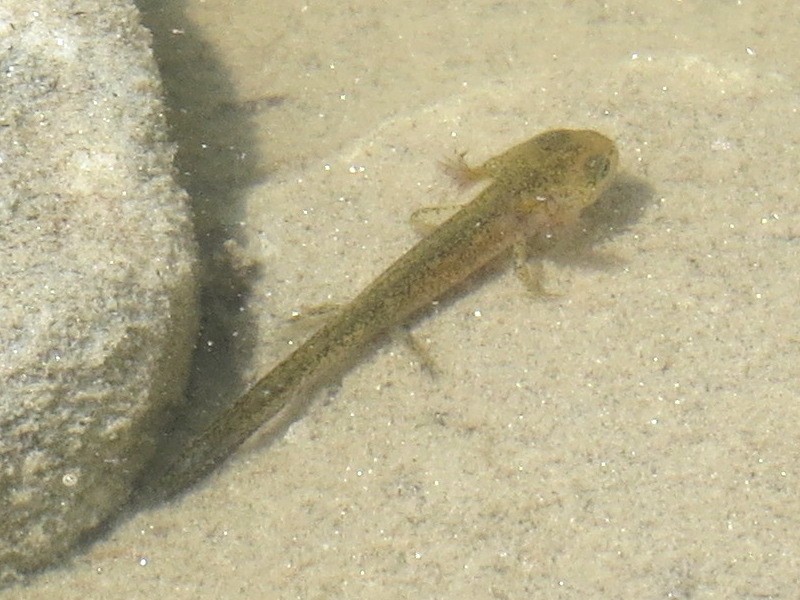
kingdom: Animalia
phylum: Chordata
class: Amphibia
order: Caudata
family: Salamandridae
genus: Ichthyosaura
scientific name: Ichthyosaura alpestris
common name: Alpine newt
